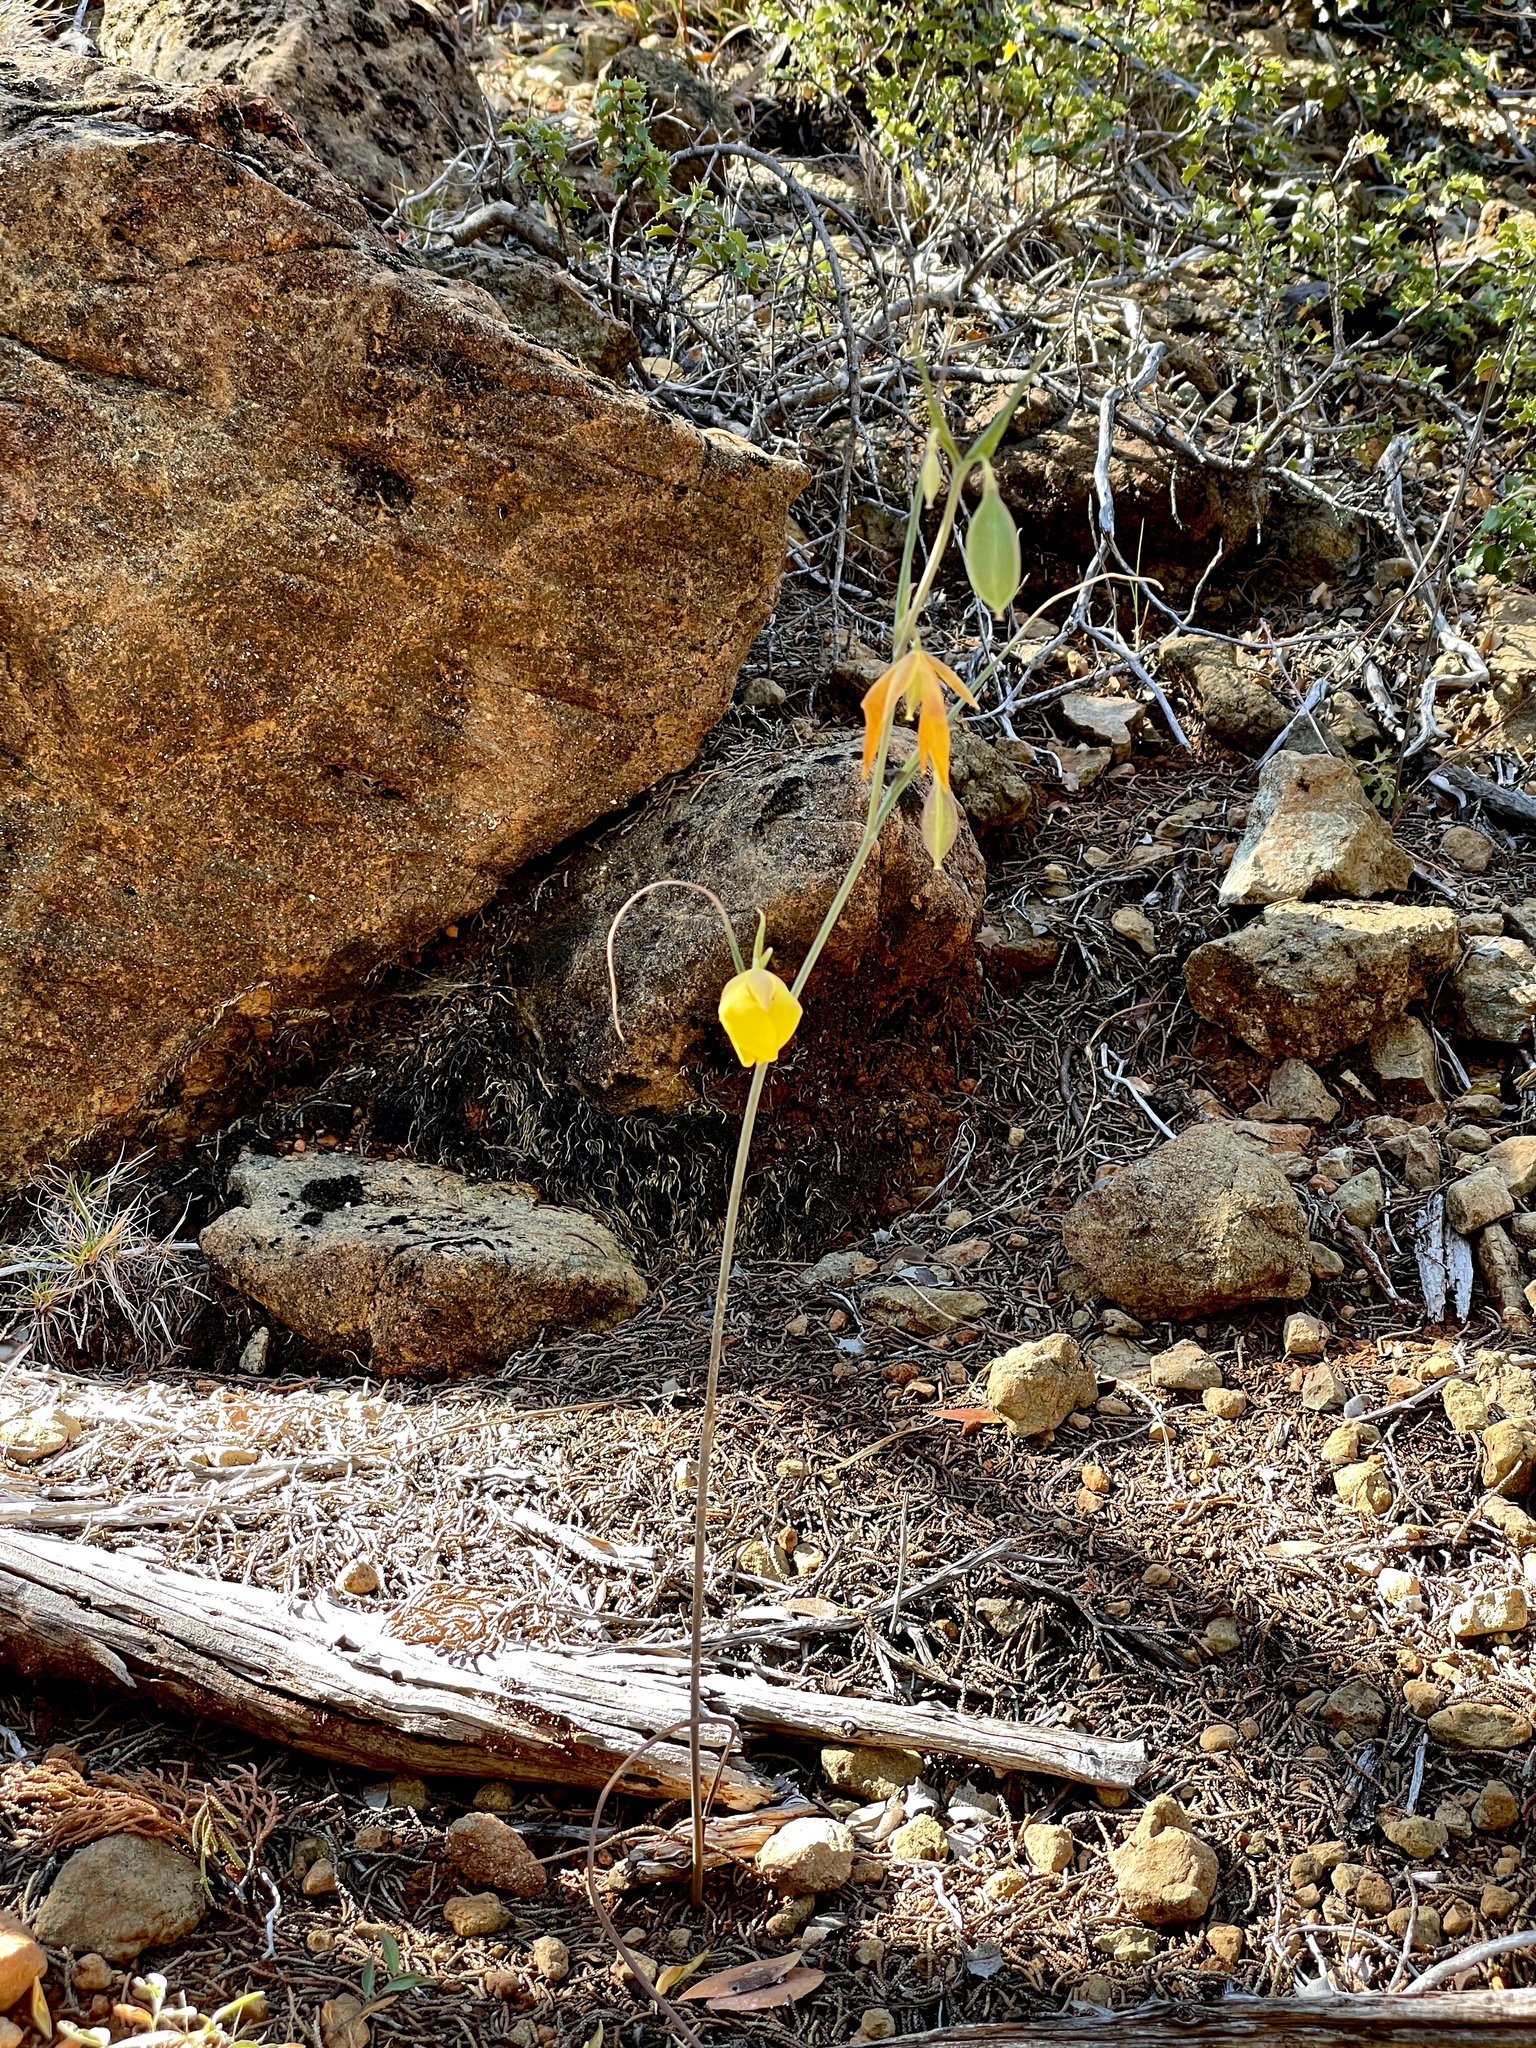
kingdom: Plantae
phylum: Tracheophyta
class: Liliopsida
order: Liliales
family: Liliaceae
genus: Calochortus
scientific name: Calochortus raichei
